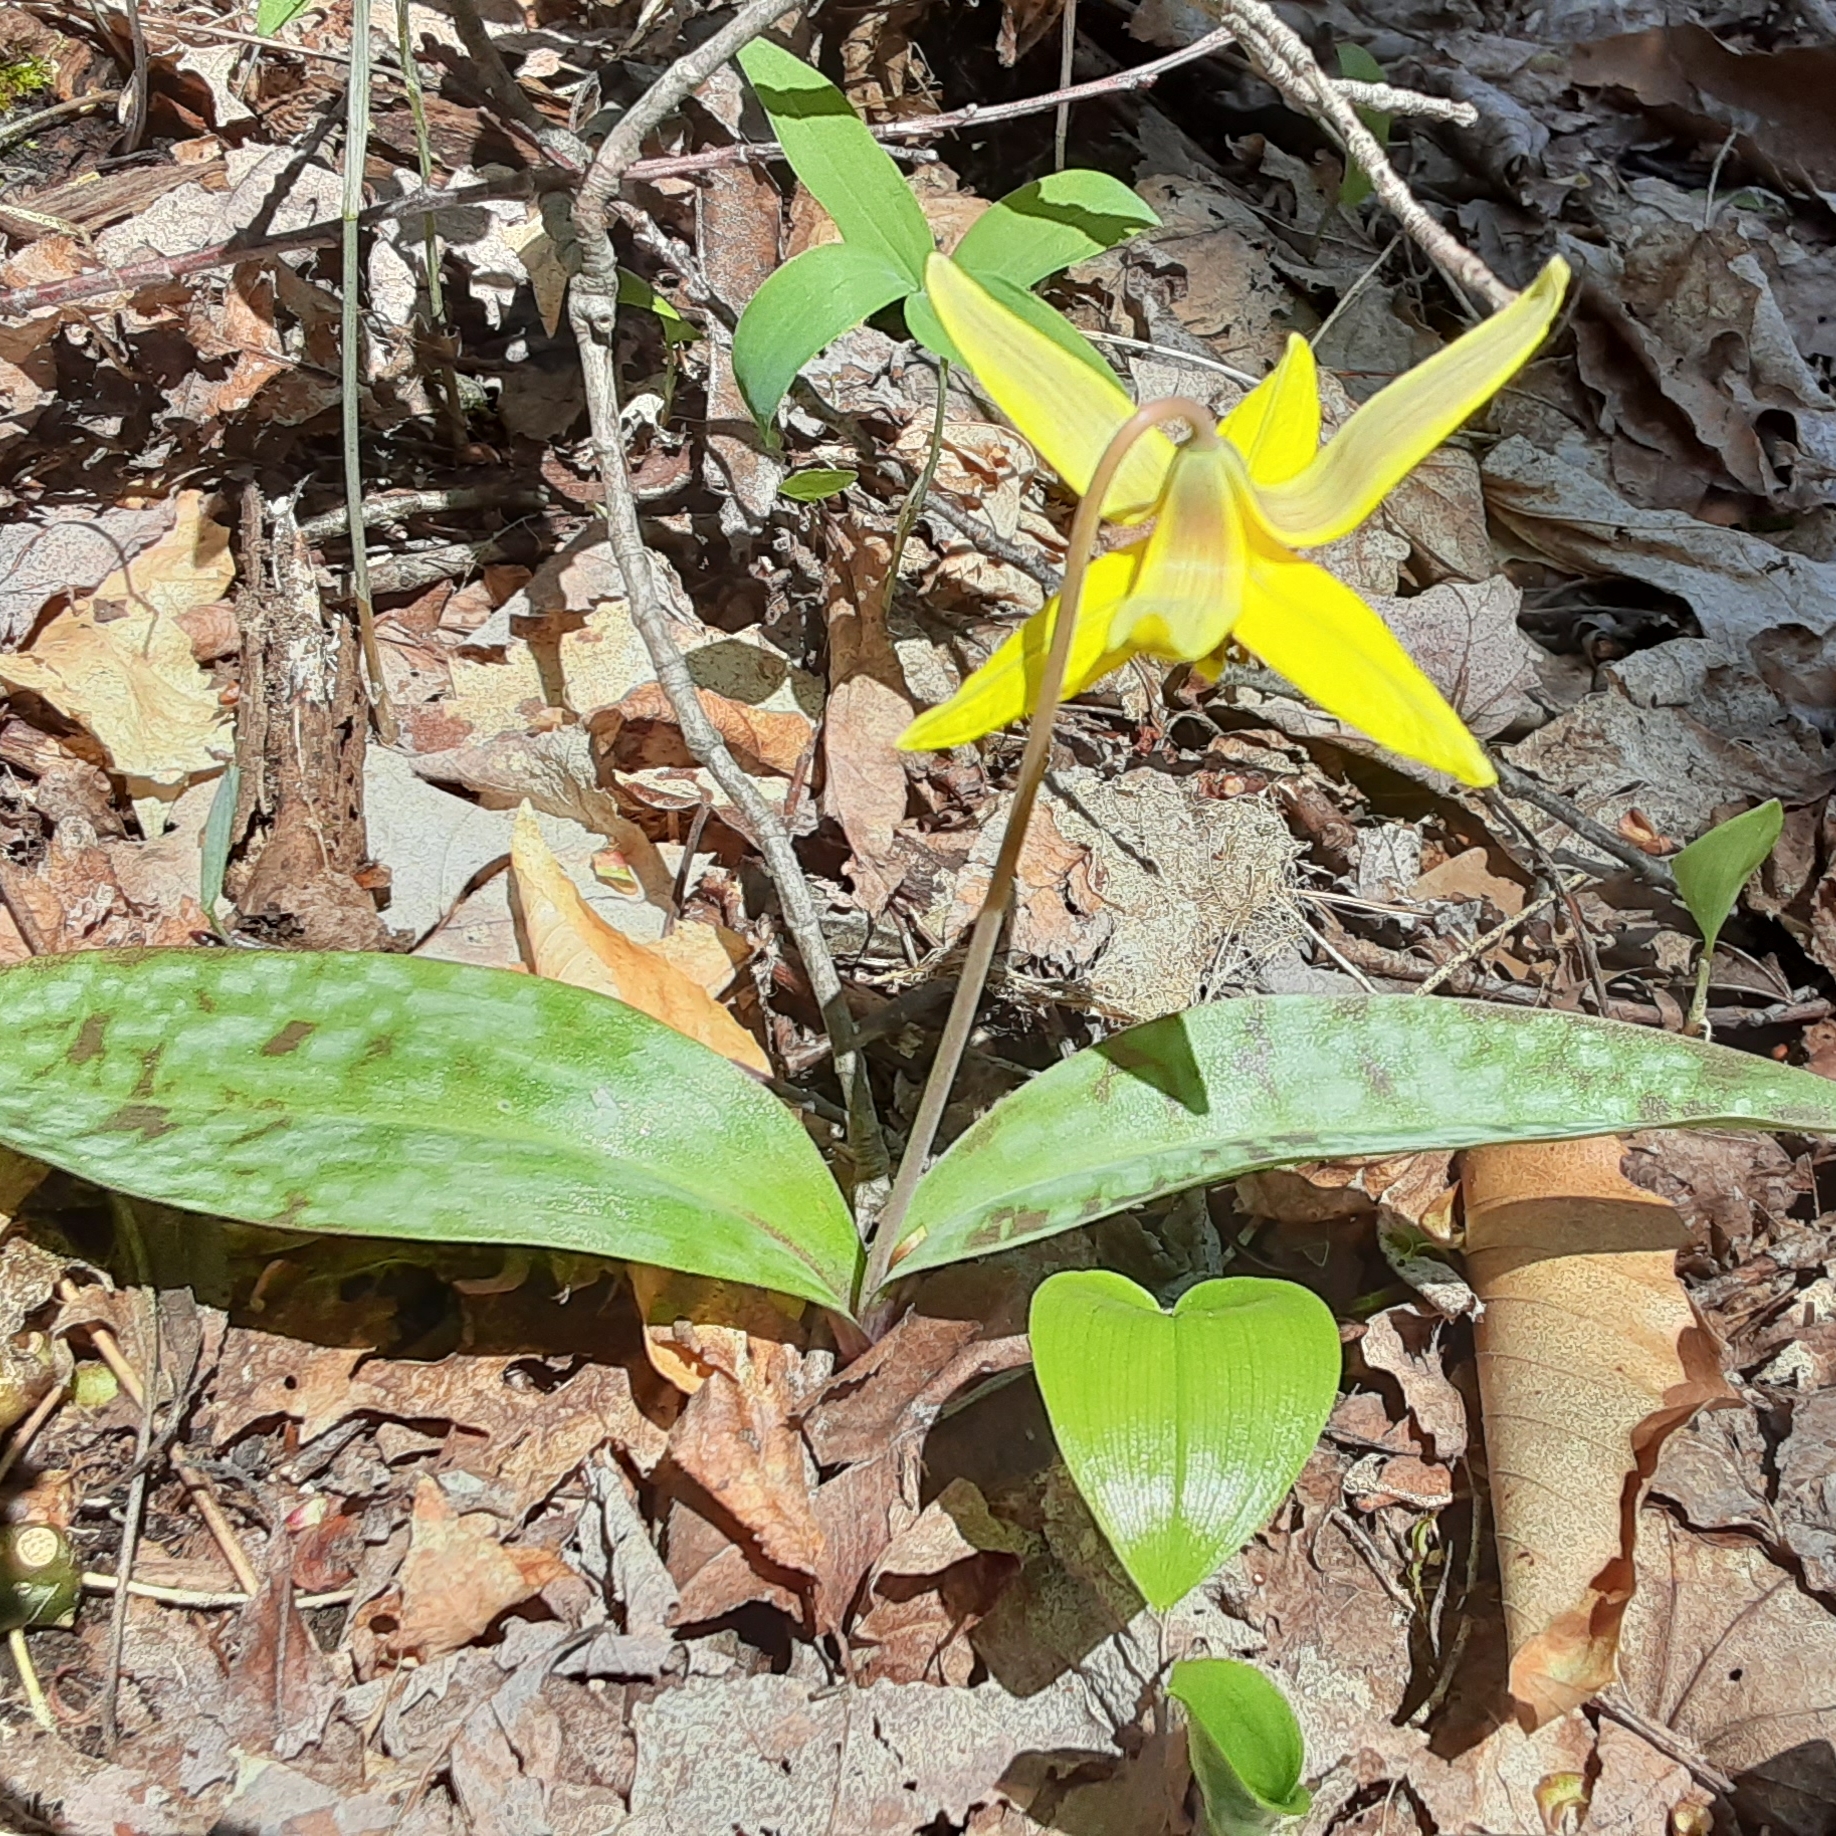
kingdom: Plantae
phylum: Tracheophyta
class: Liliopsida
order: Liliales
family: Liliaceae
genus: Erythronium
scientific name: Erythronium americanum
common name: Yellow adder's-tongue
